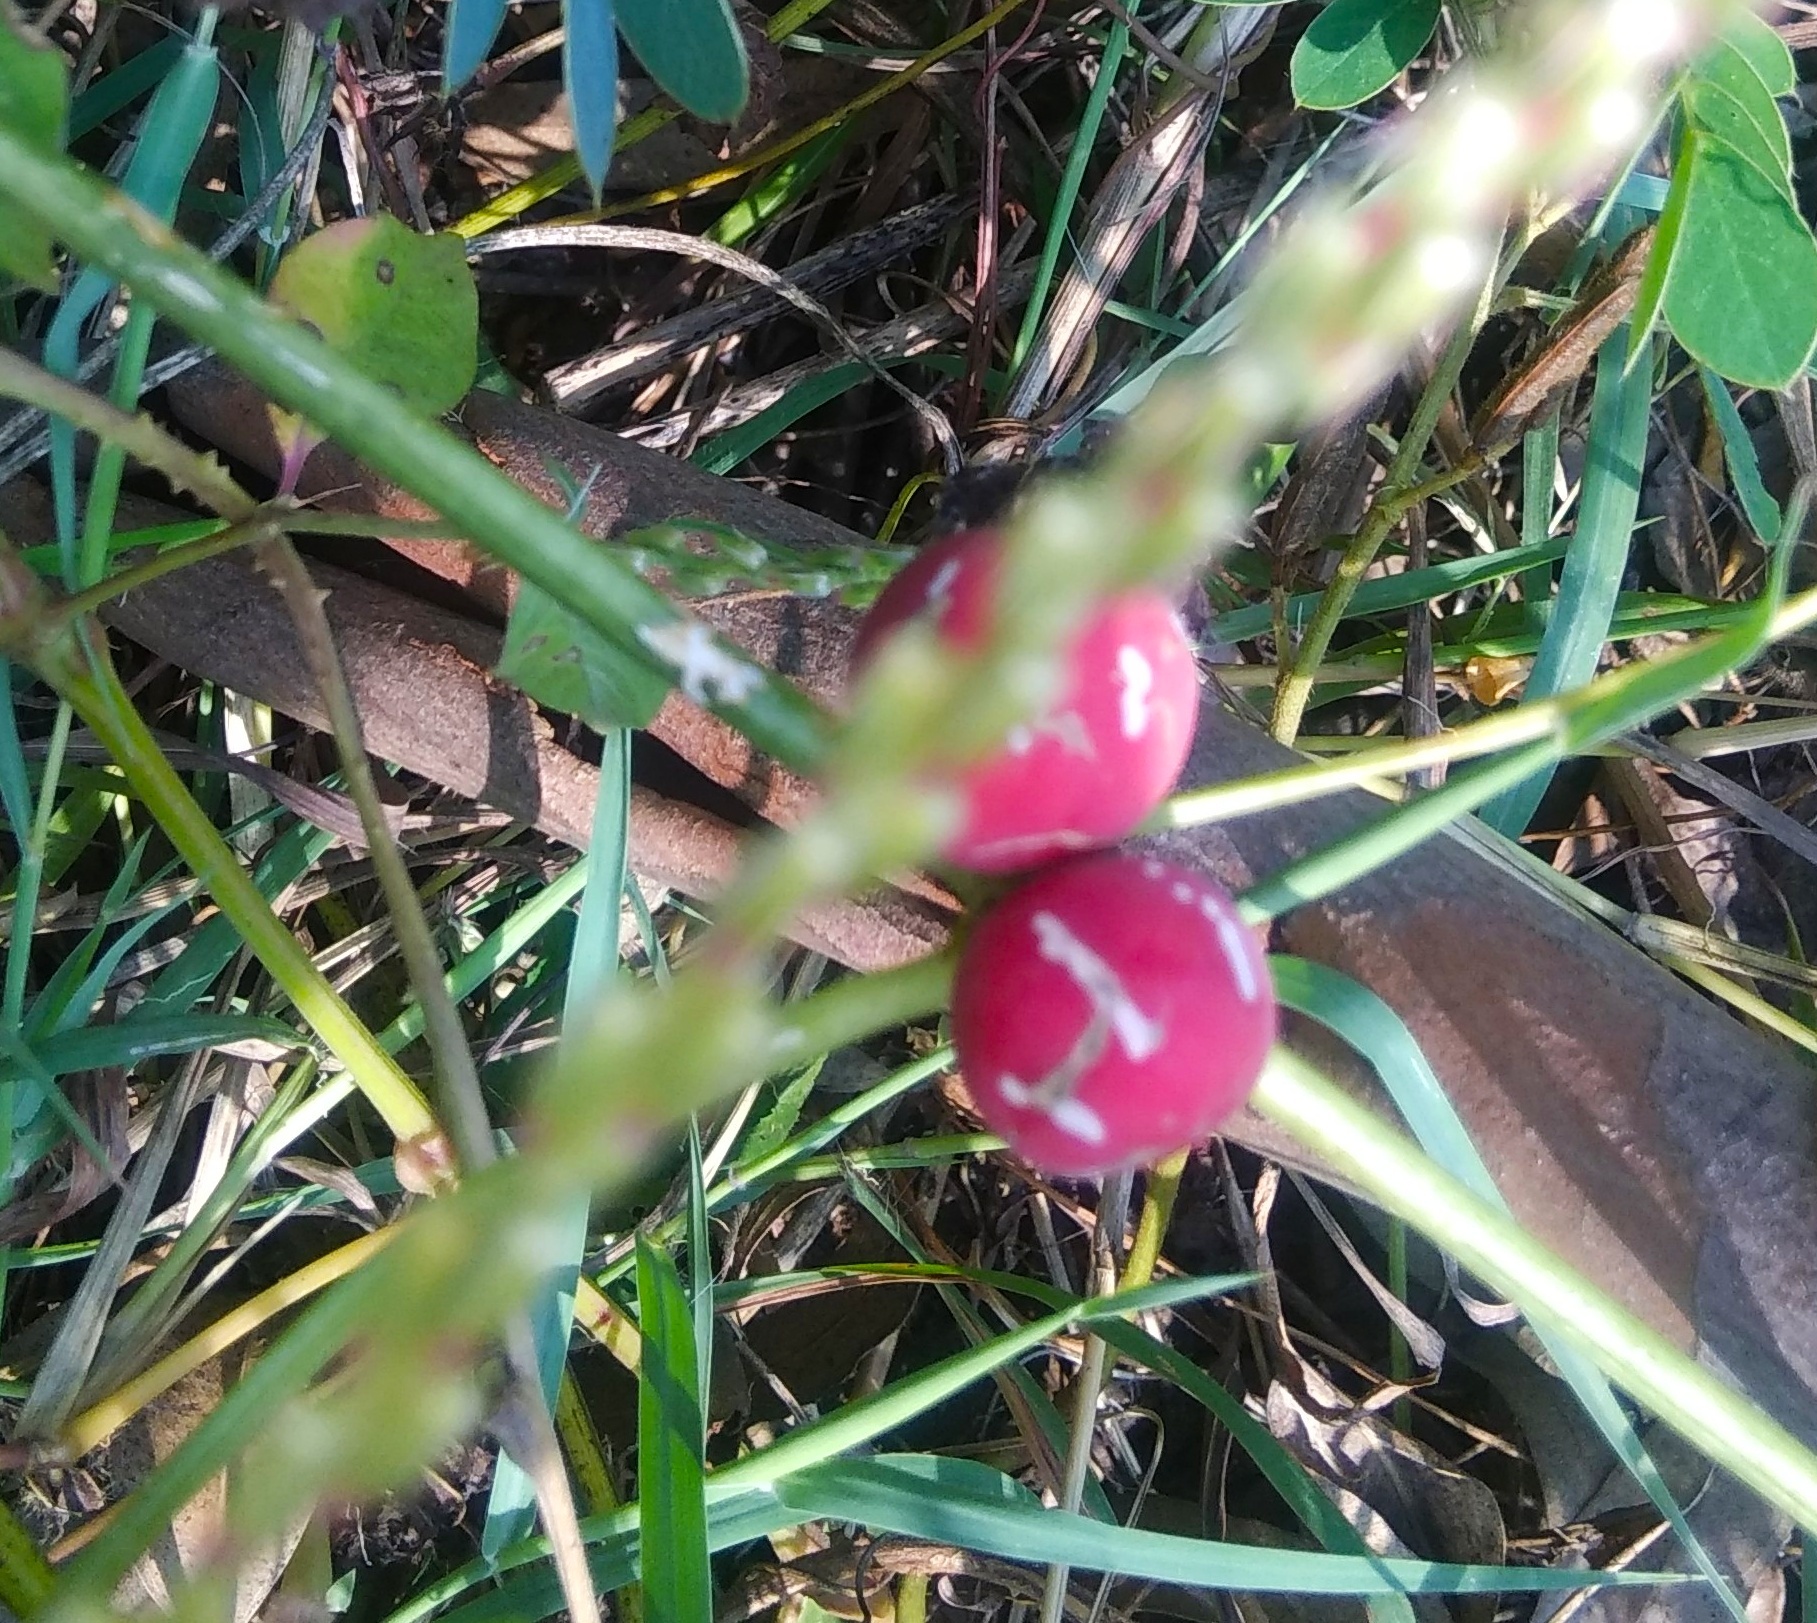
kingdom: Plantae
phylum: Tracheophyta
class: Magnoliopsida
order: Cucurbitales
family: Cucurbitaceae
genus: Diplocyclos
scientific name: Diplocyclos palmatus
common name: Striped-cucumber
